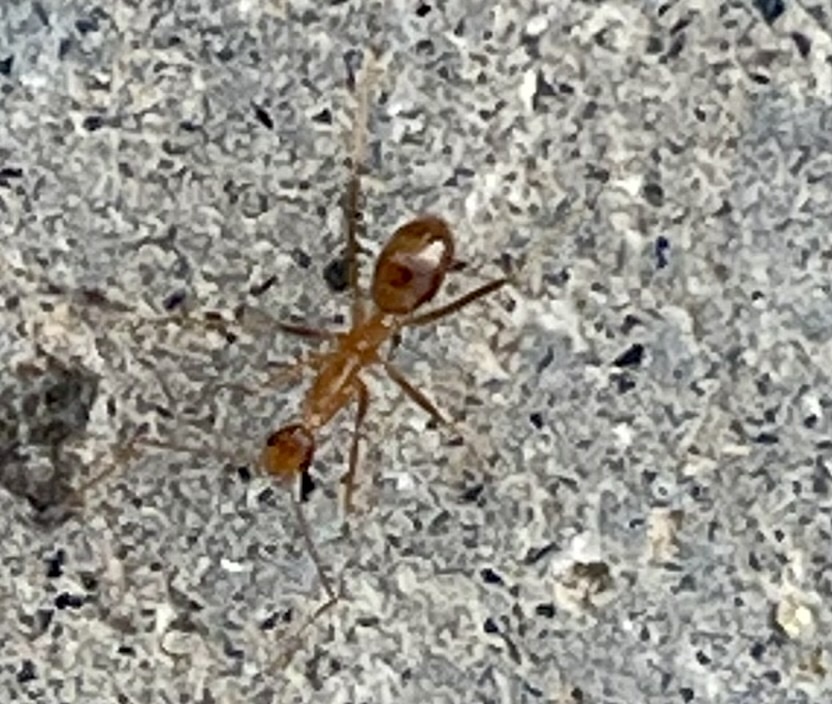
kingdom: Animalia
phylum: Arthropoda
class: Insecta
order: Hymenoptera
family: Formicidae
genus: Anoplolepis
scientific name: Anoplolepis gracilipes
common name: Ant
